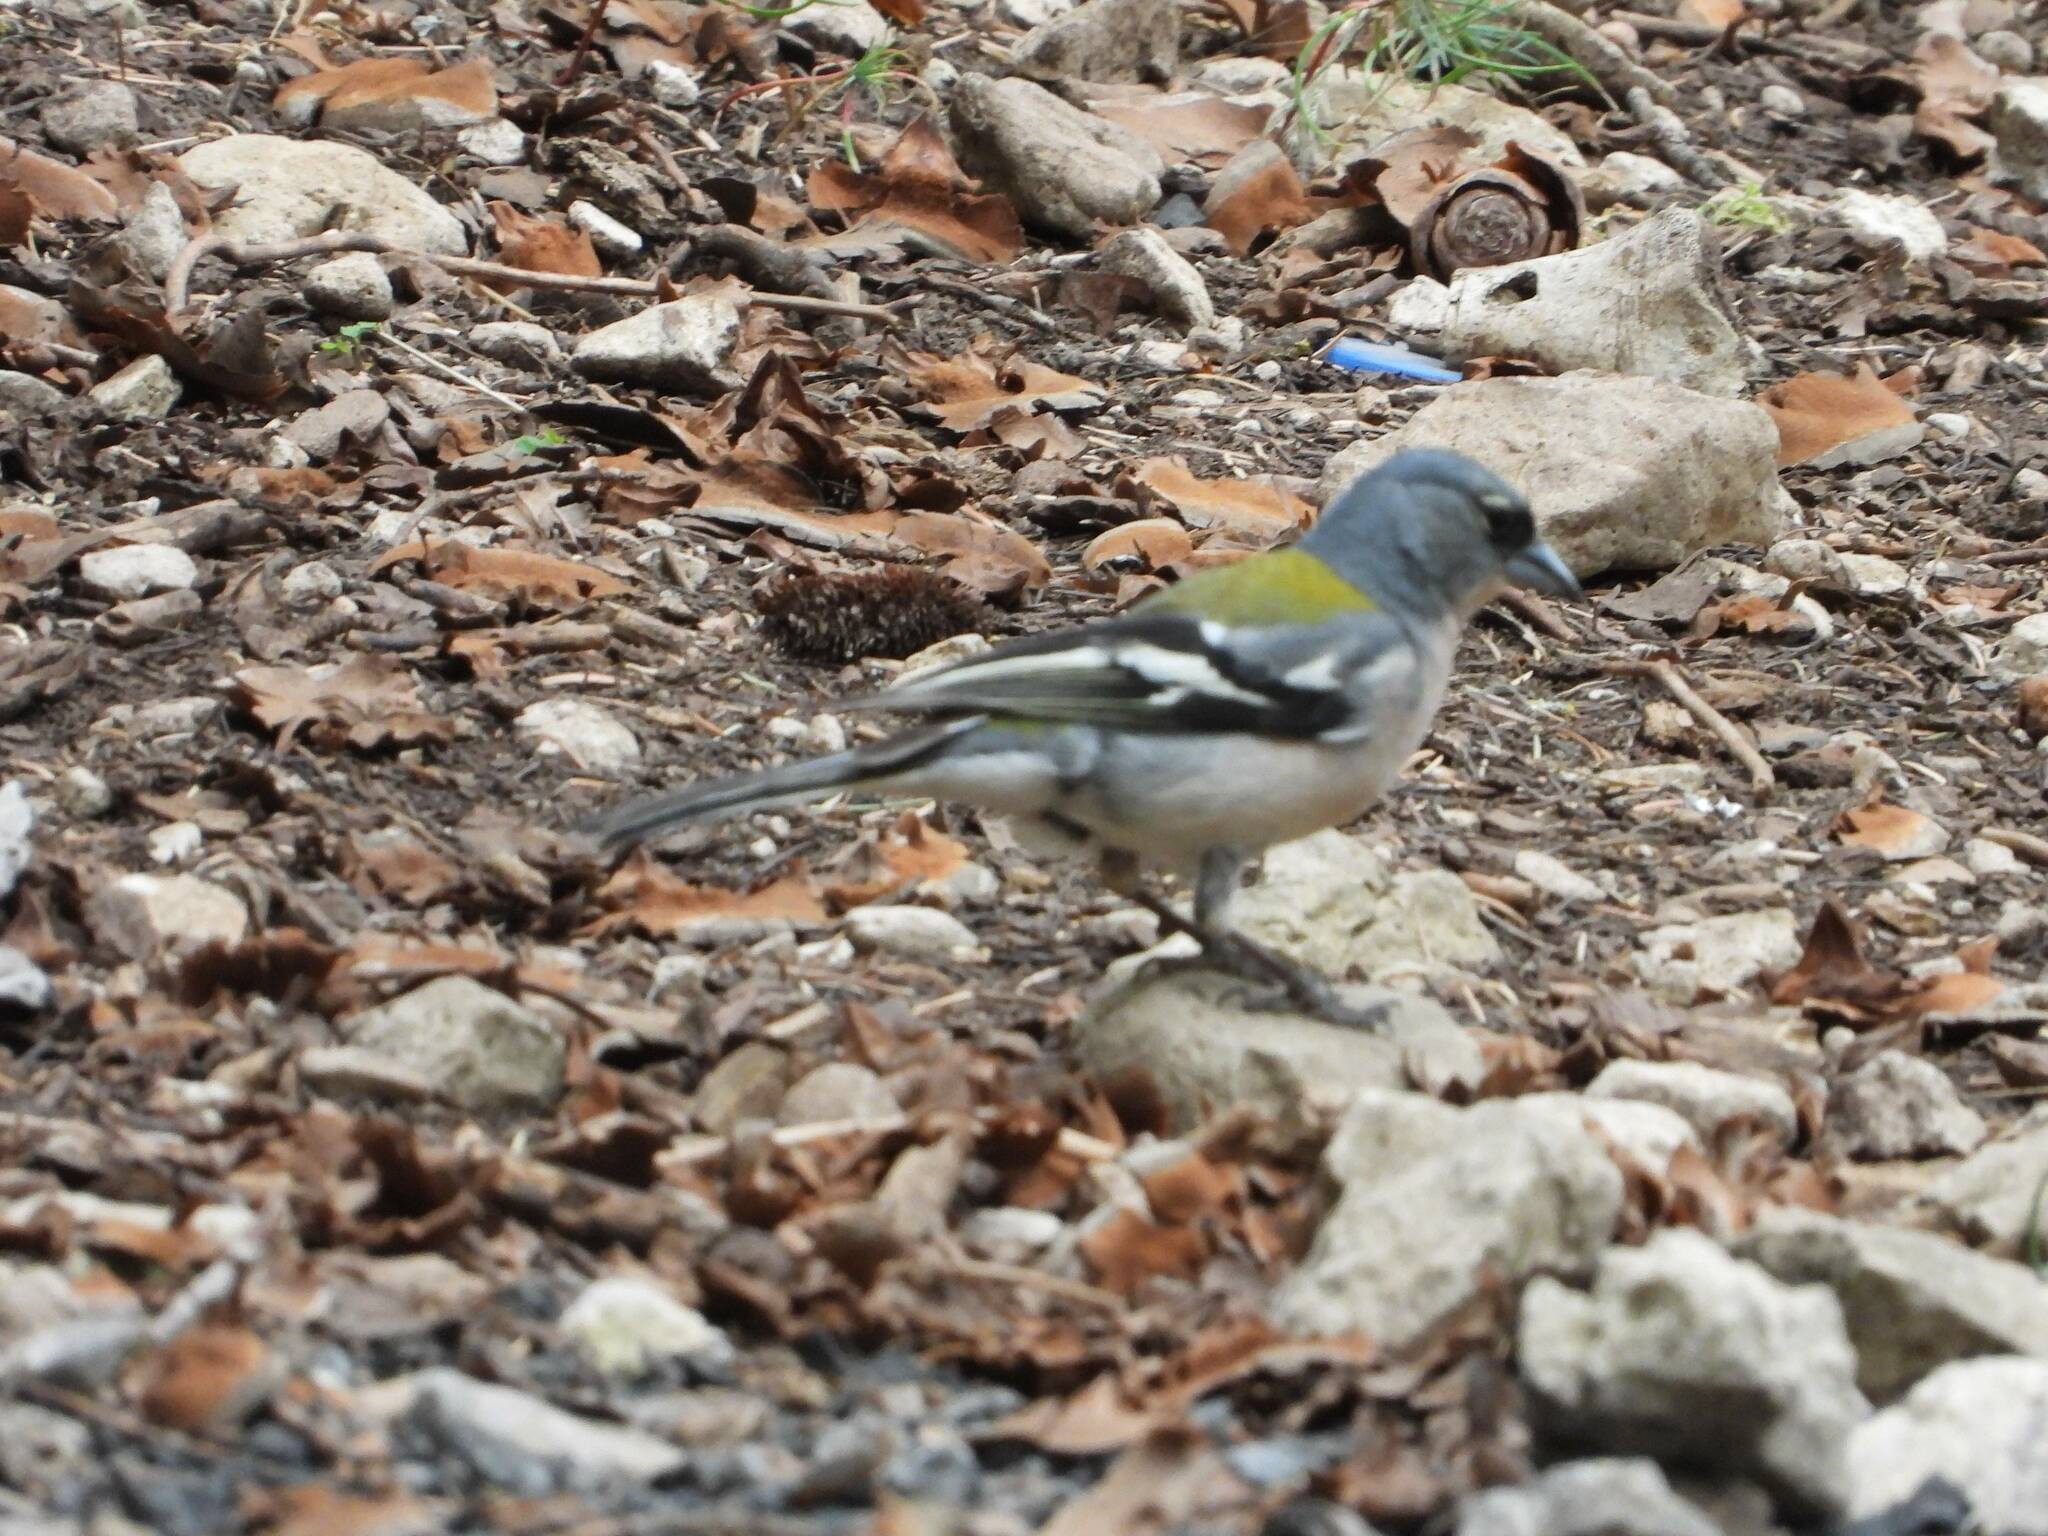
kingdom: Animalia
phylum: Chordata
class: Aves
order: Passeriformes
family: Fringillidae
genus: Fringilla
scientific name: Fringilla spodiogenys
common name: African chaffinch
